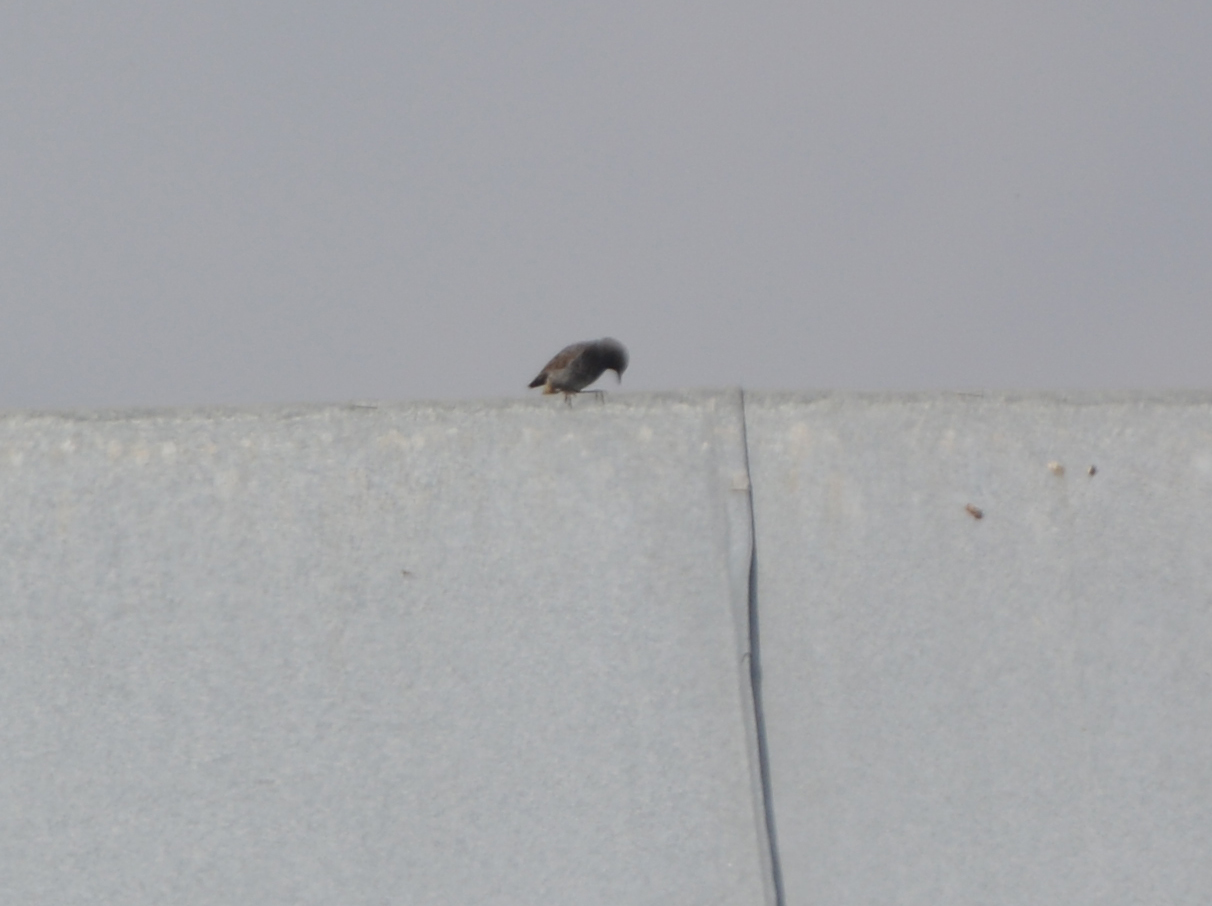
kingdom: Animalia
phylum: Chordata
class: Aves
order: Passeriformes
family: Muscicapidae
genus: Phoenicurus
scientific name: Phoenicurus ochruros
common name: Black redstart
